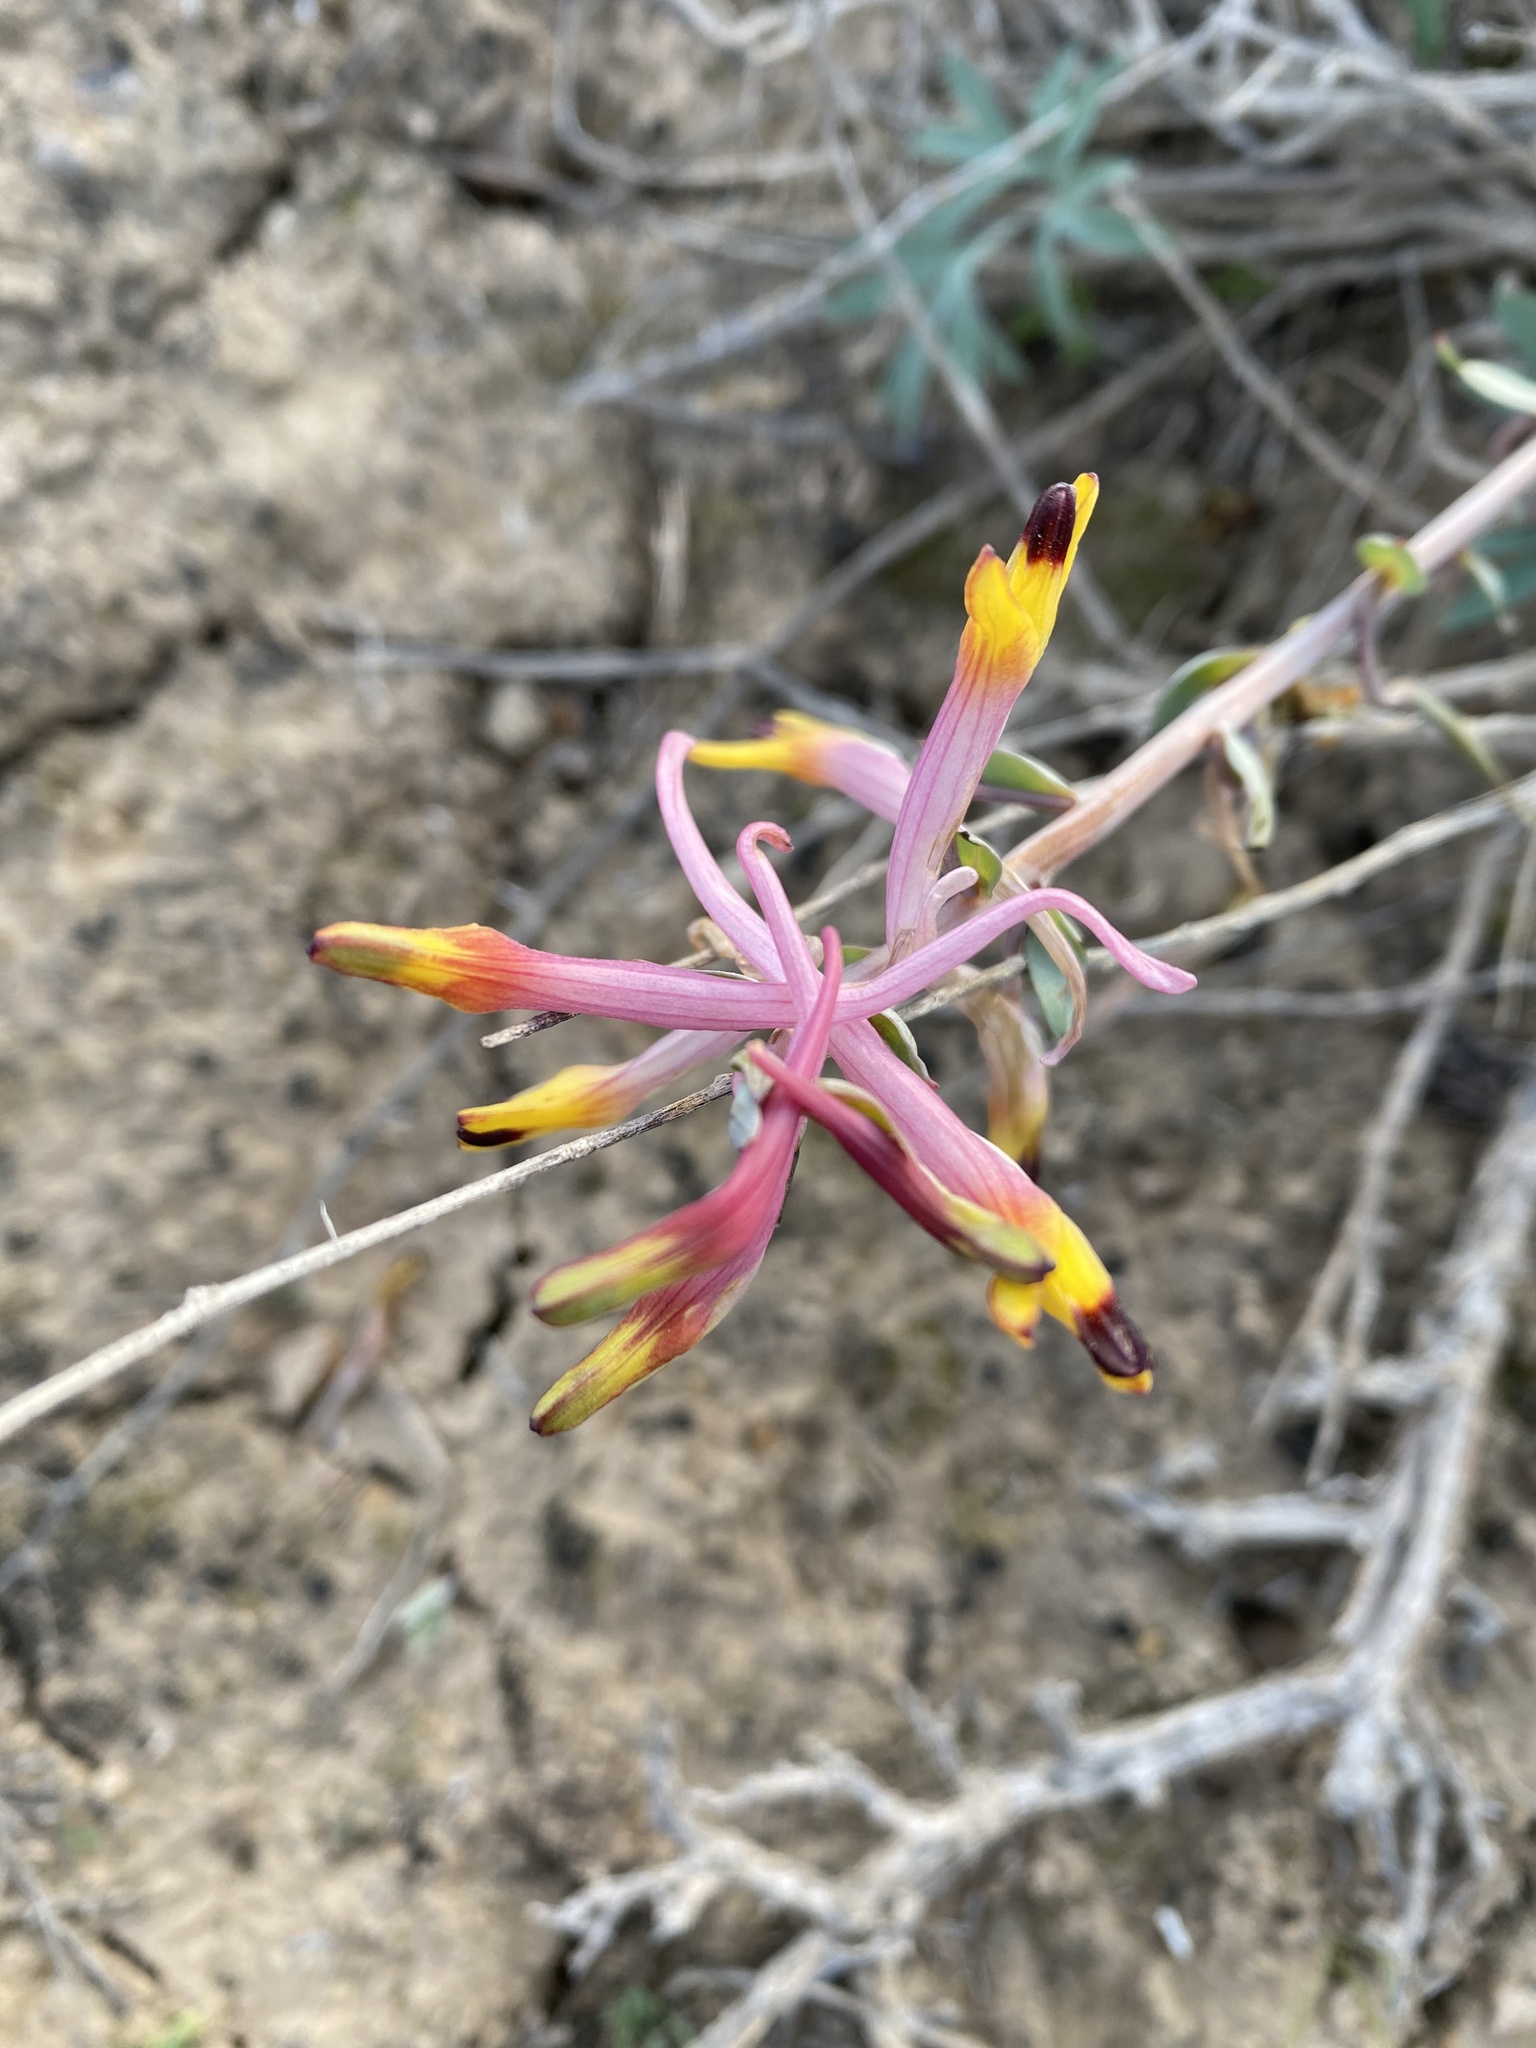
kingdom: Plantae
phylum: Tracheophyta
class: Magnoliopsida
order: Ranunculales
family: Papaveraceae
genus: Corydalis
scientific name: Corydalis schanginii
